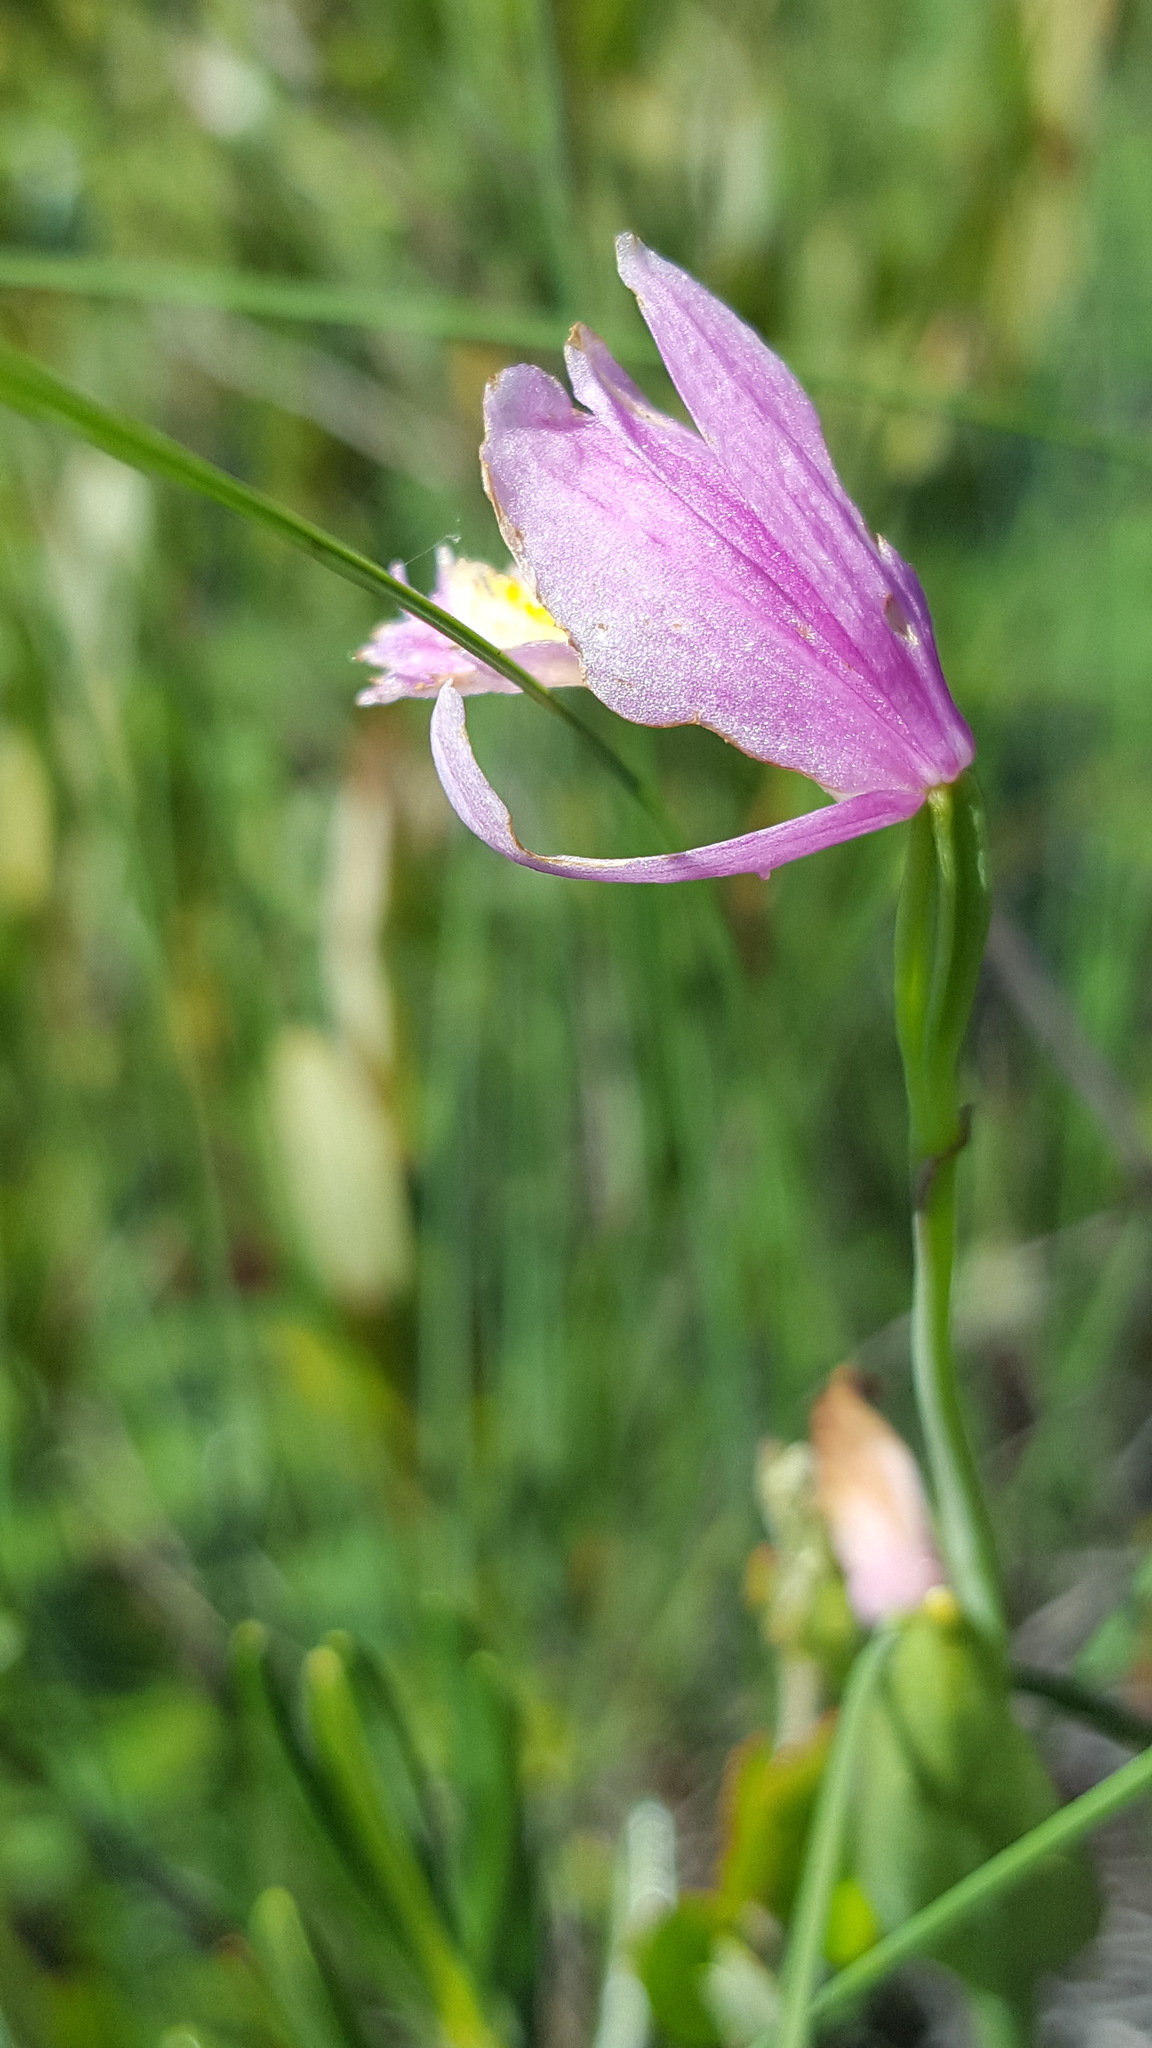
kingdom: Plantae
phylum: Tracheophyta
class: Liliopsida
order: Asparagales
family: Orchidaceae
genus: Pogonia
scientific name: Pogonia ophioglossoides
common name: Rose pogonia
